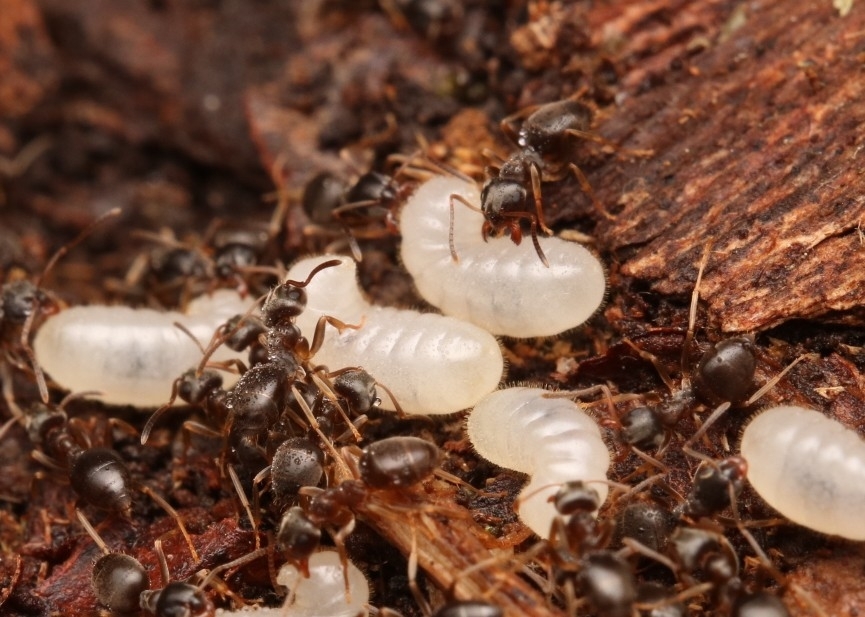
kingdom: Animalia
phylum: Arthropoda
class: Insecta
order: Hymenoptera
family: Formicidae
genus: Lasius
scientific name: Lasius americanus
